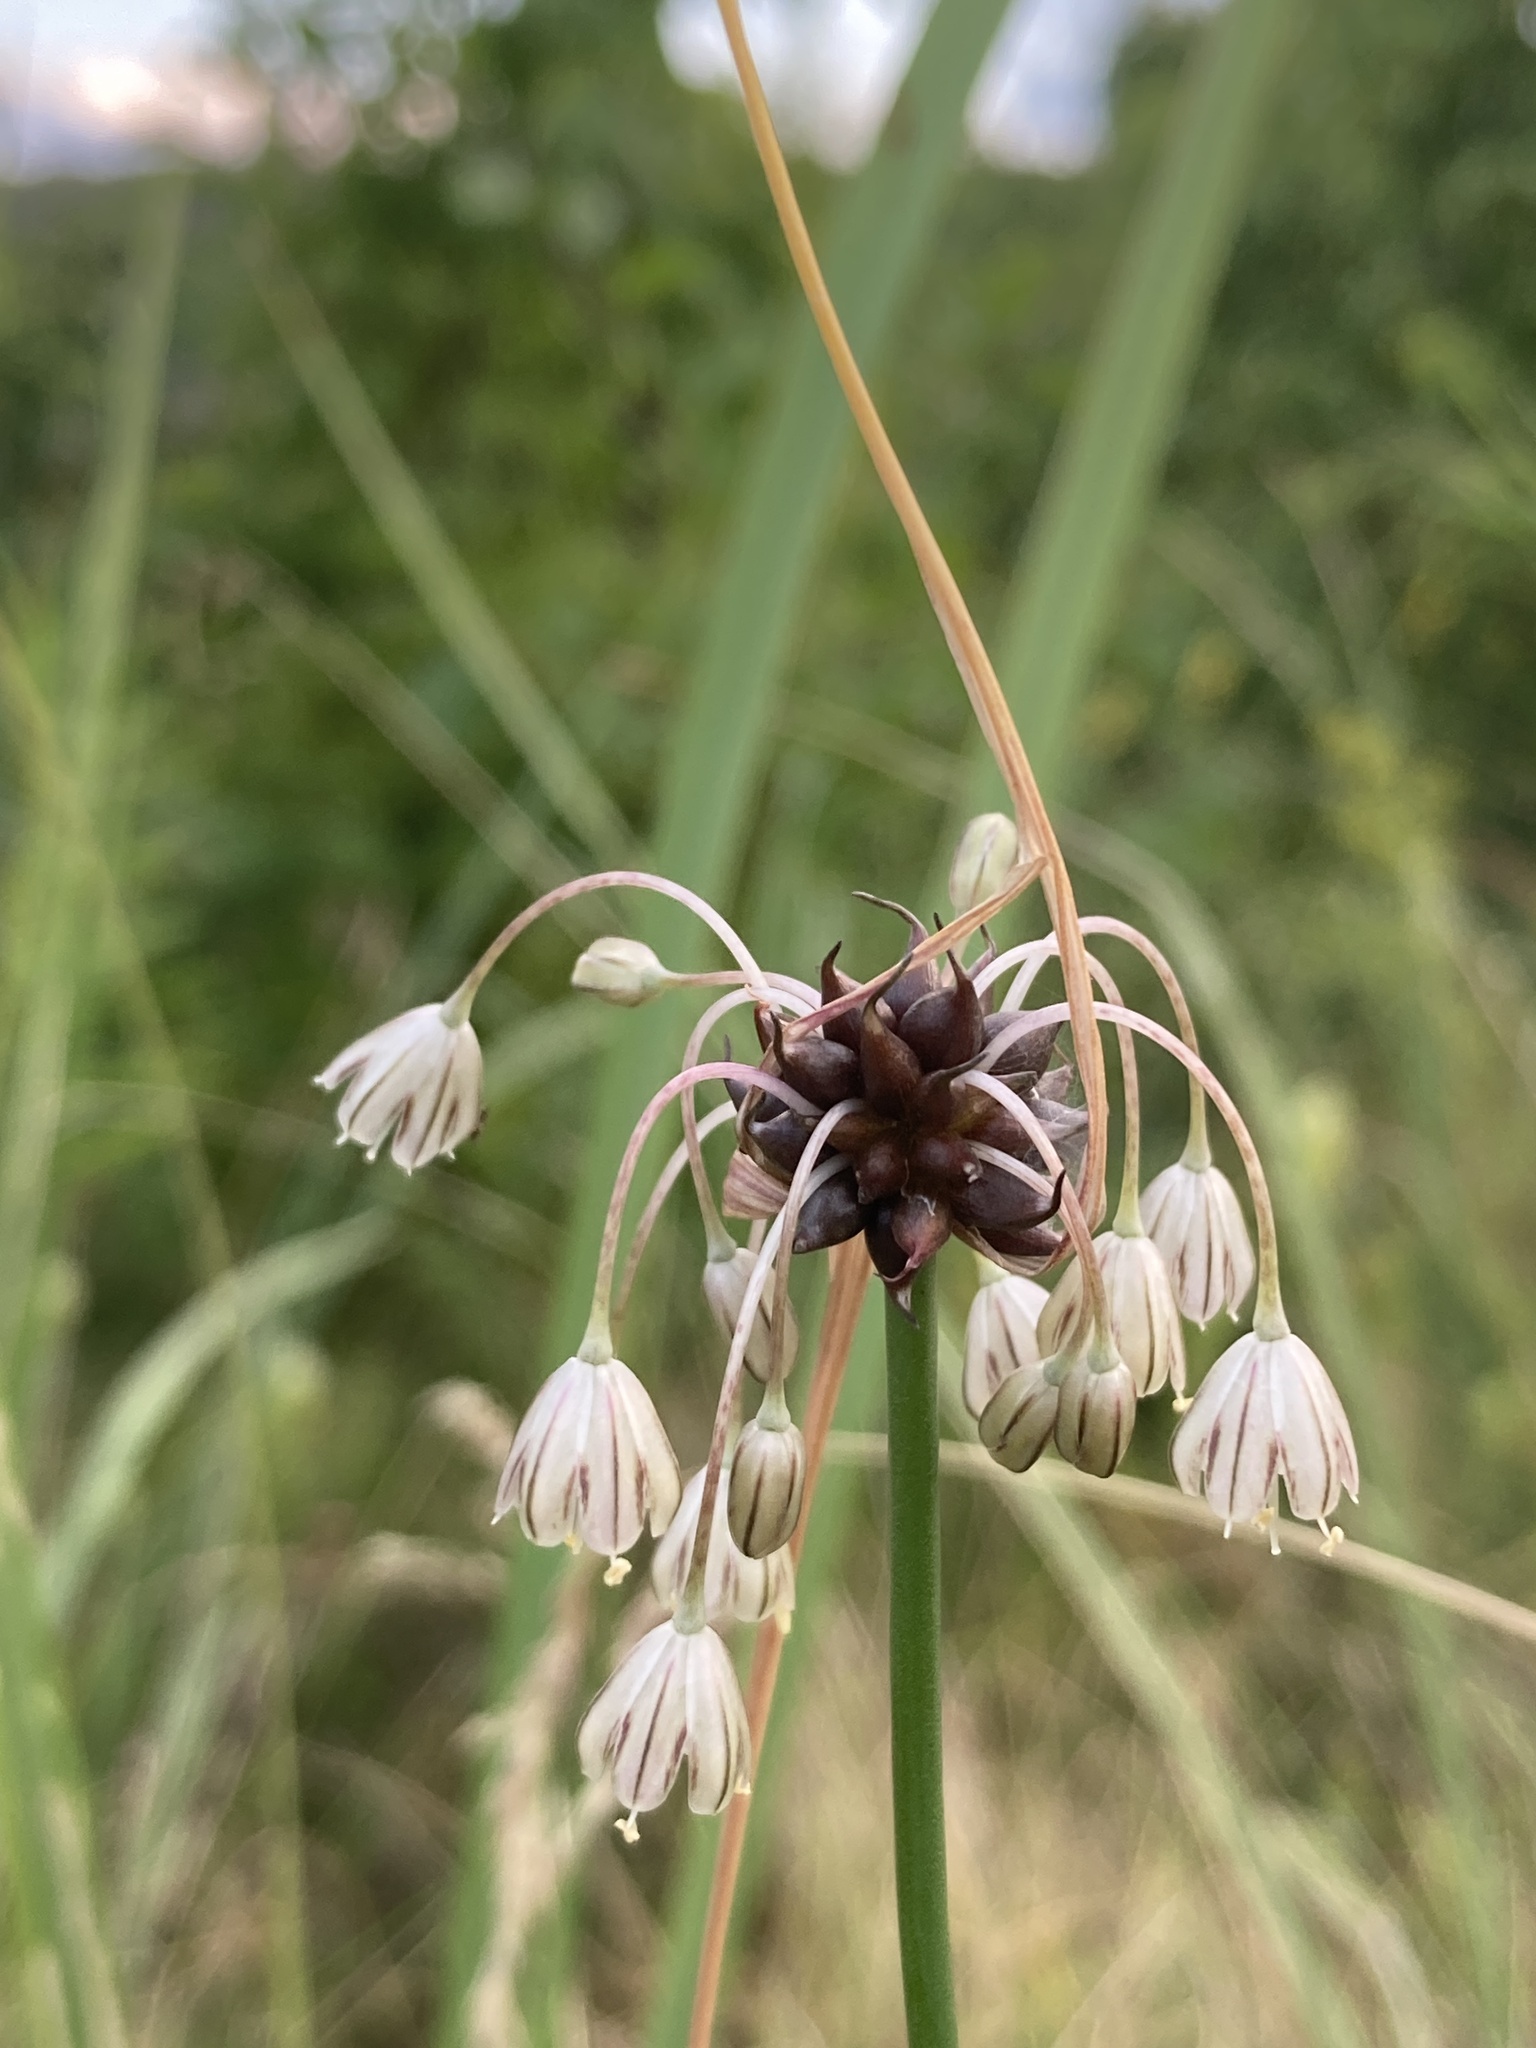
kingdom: Plantae
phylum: Tracheophyta
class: Liliopsida
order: Asparagales
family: Amaryllidaceae
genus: Allium
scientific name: Allium oleraceum
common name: Field garlic
